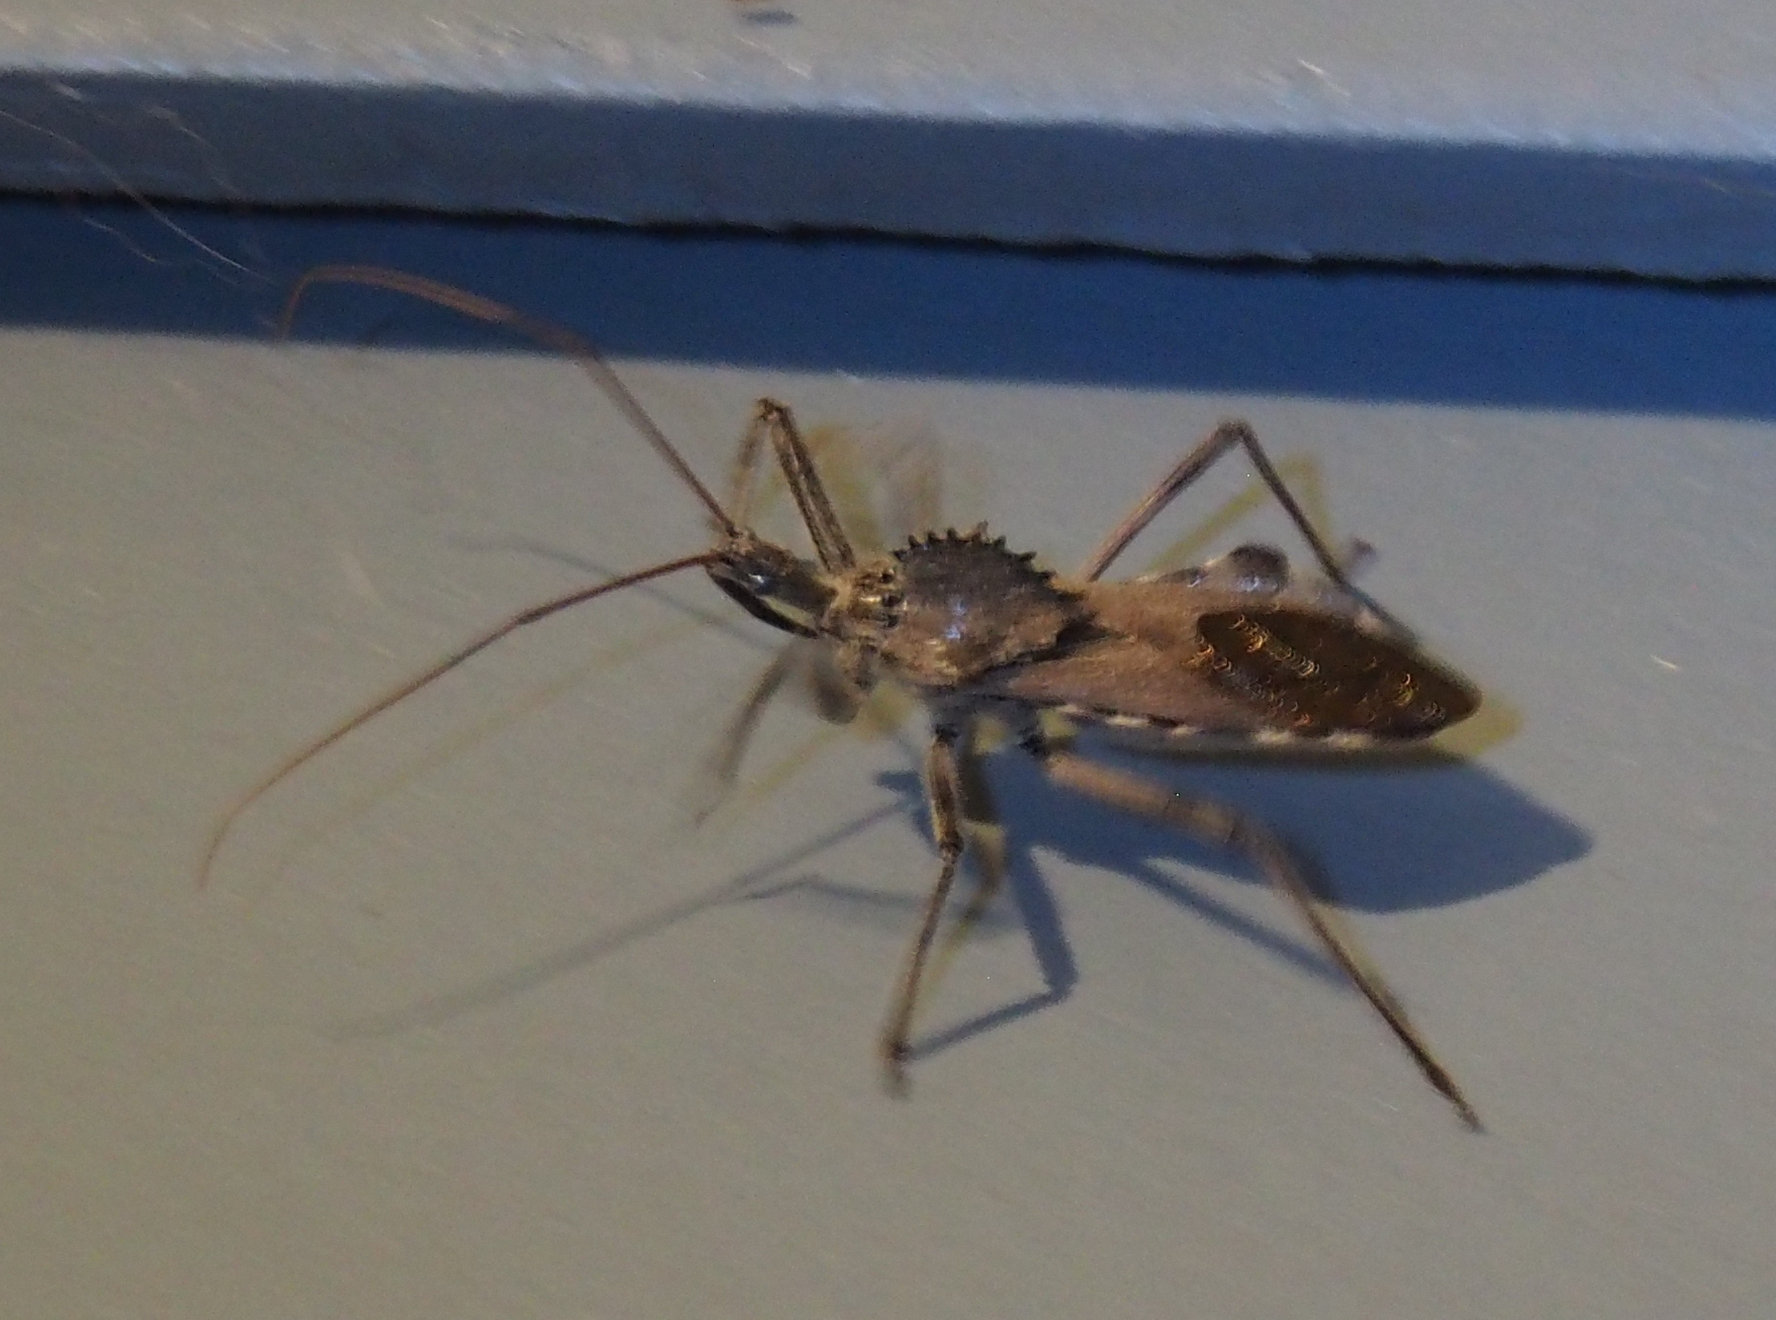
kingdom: Animalia
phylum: Arthropoda
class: Insecta
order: Hemiptera
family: Reduviidae
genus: Arilus
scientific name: Arilus cristatus
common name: North american wheel bug
